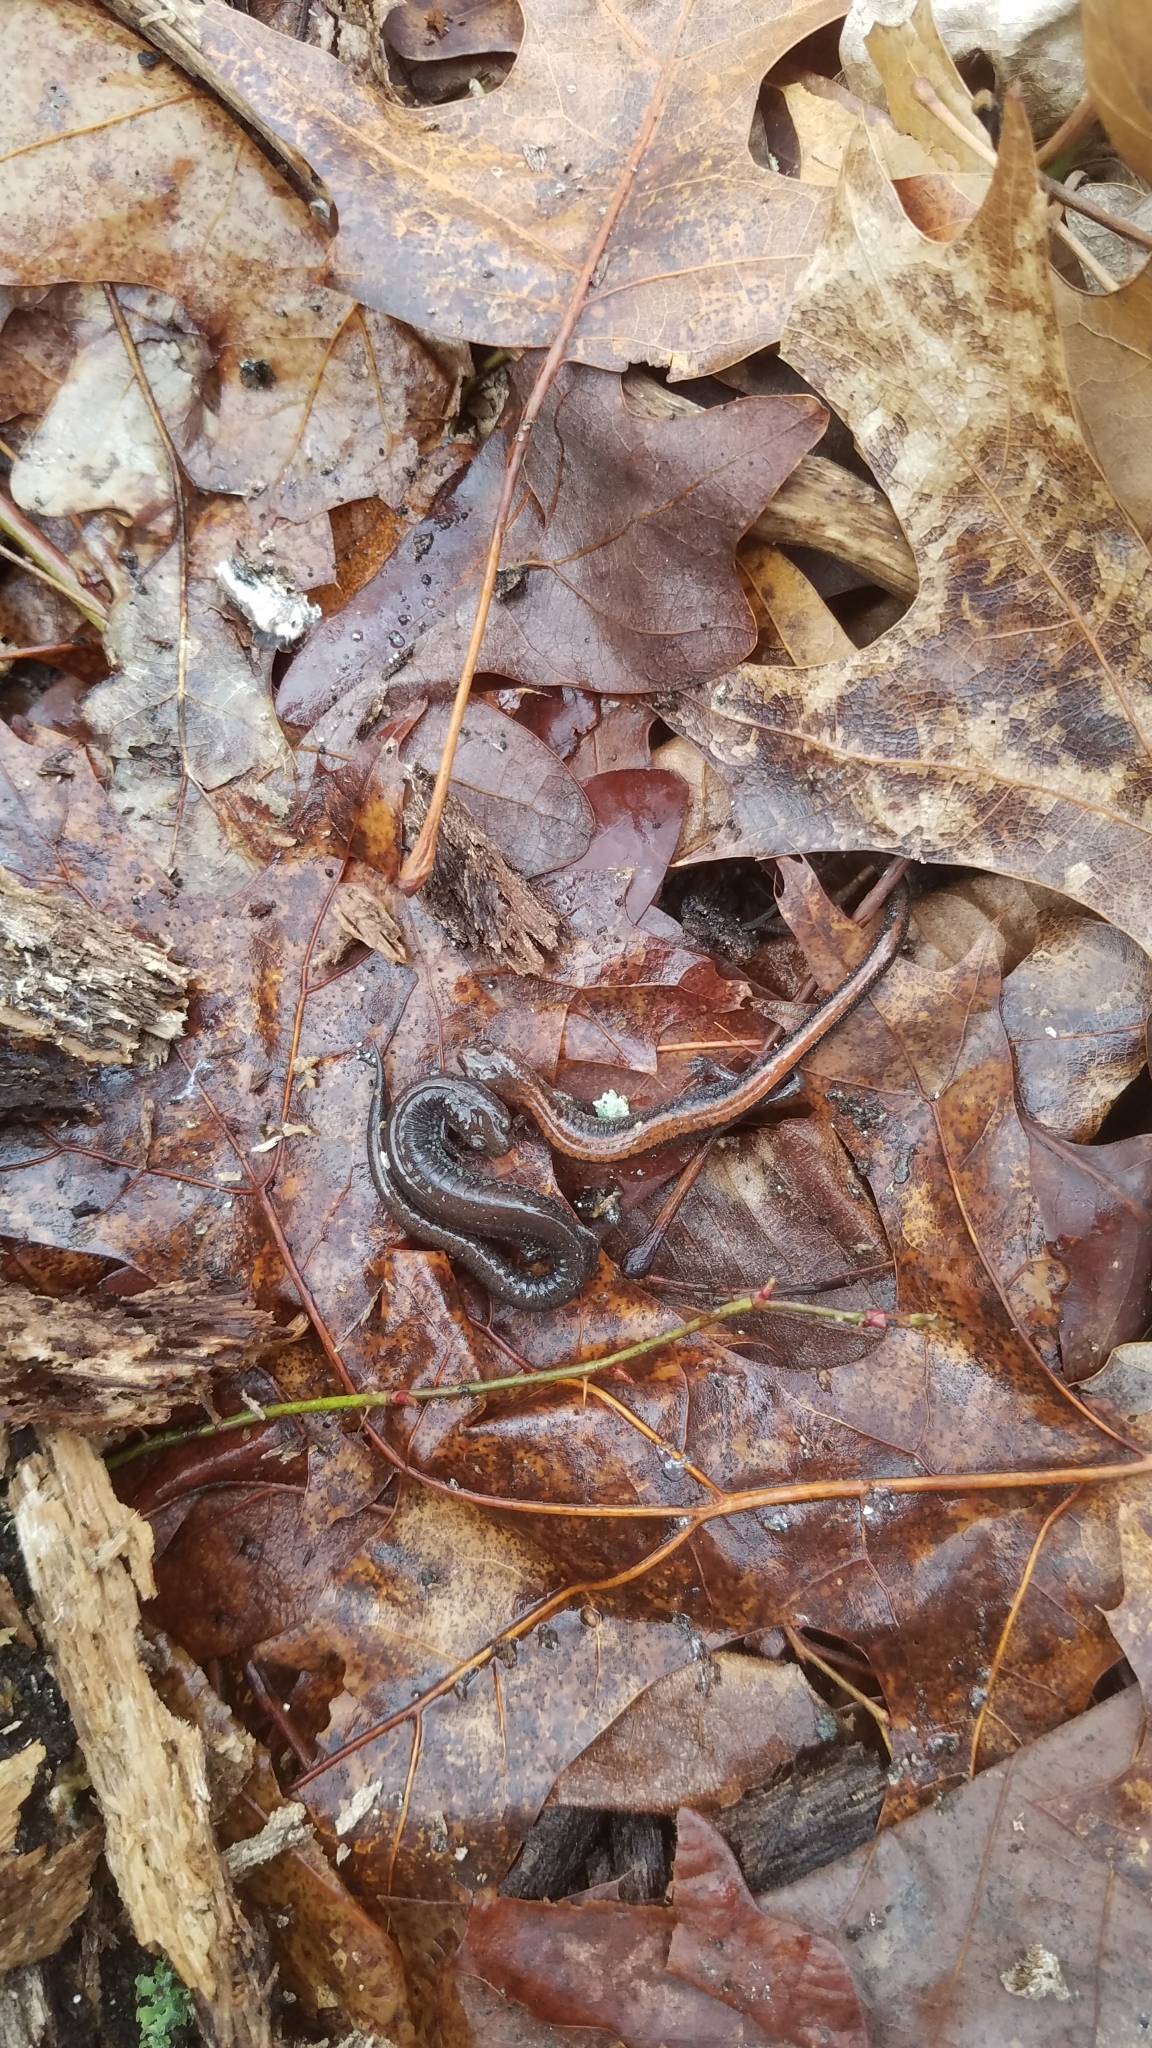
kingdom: Animalia
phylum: Chordata
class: Amphibia
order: Caudata
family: Plethodontidae
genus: Plethodon
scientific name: Plethodon cinereus
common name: Redback salamander
